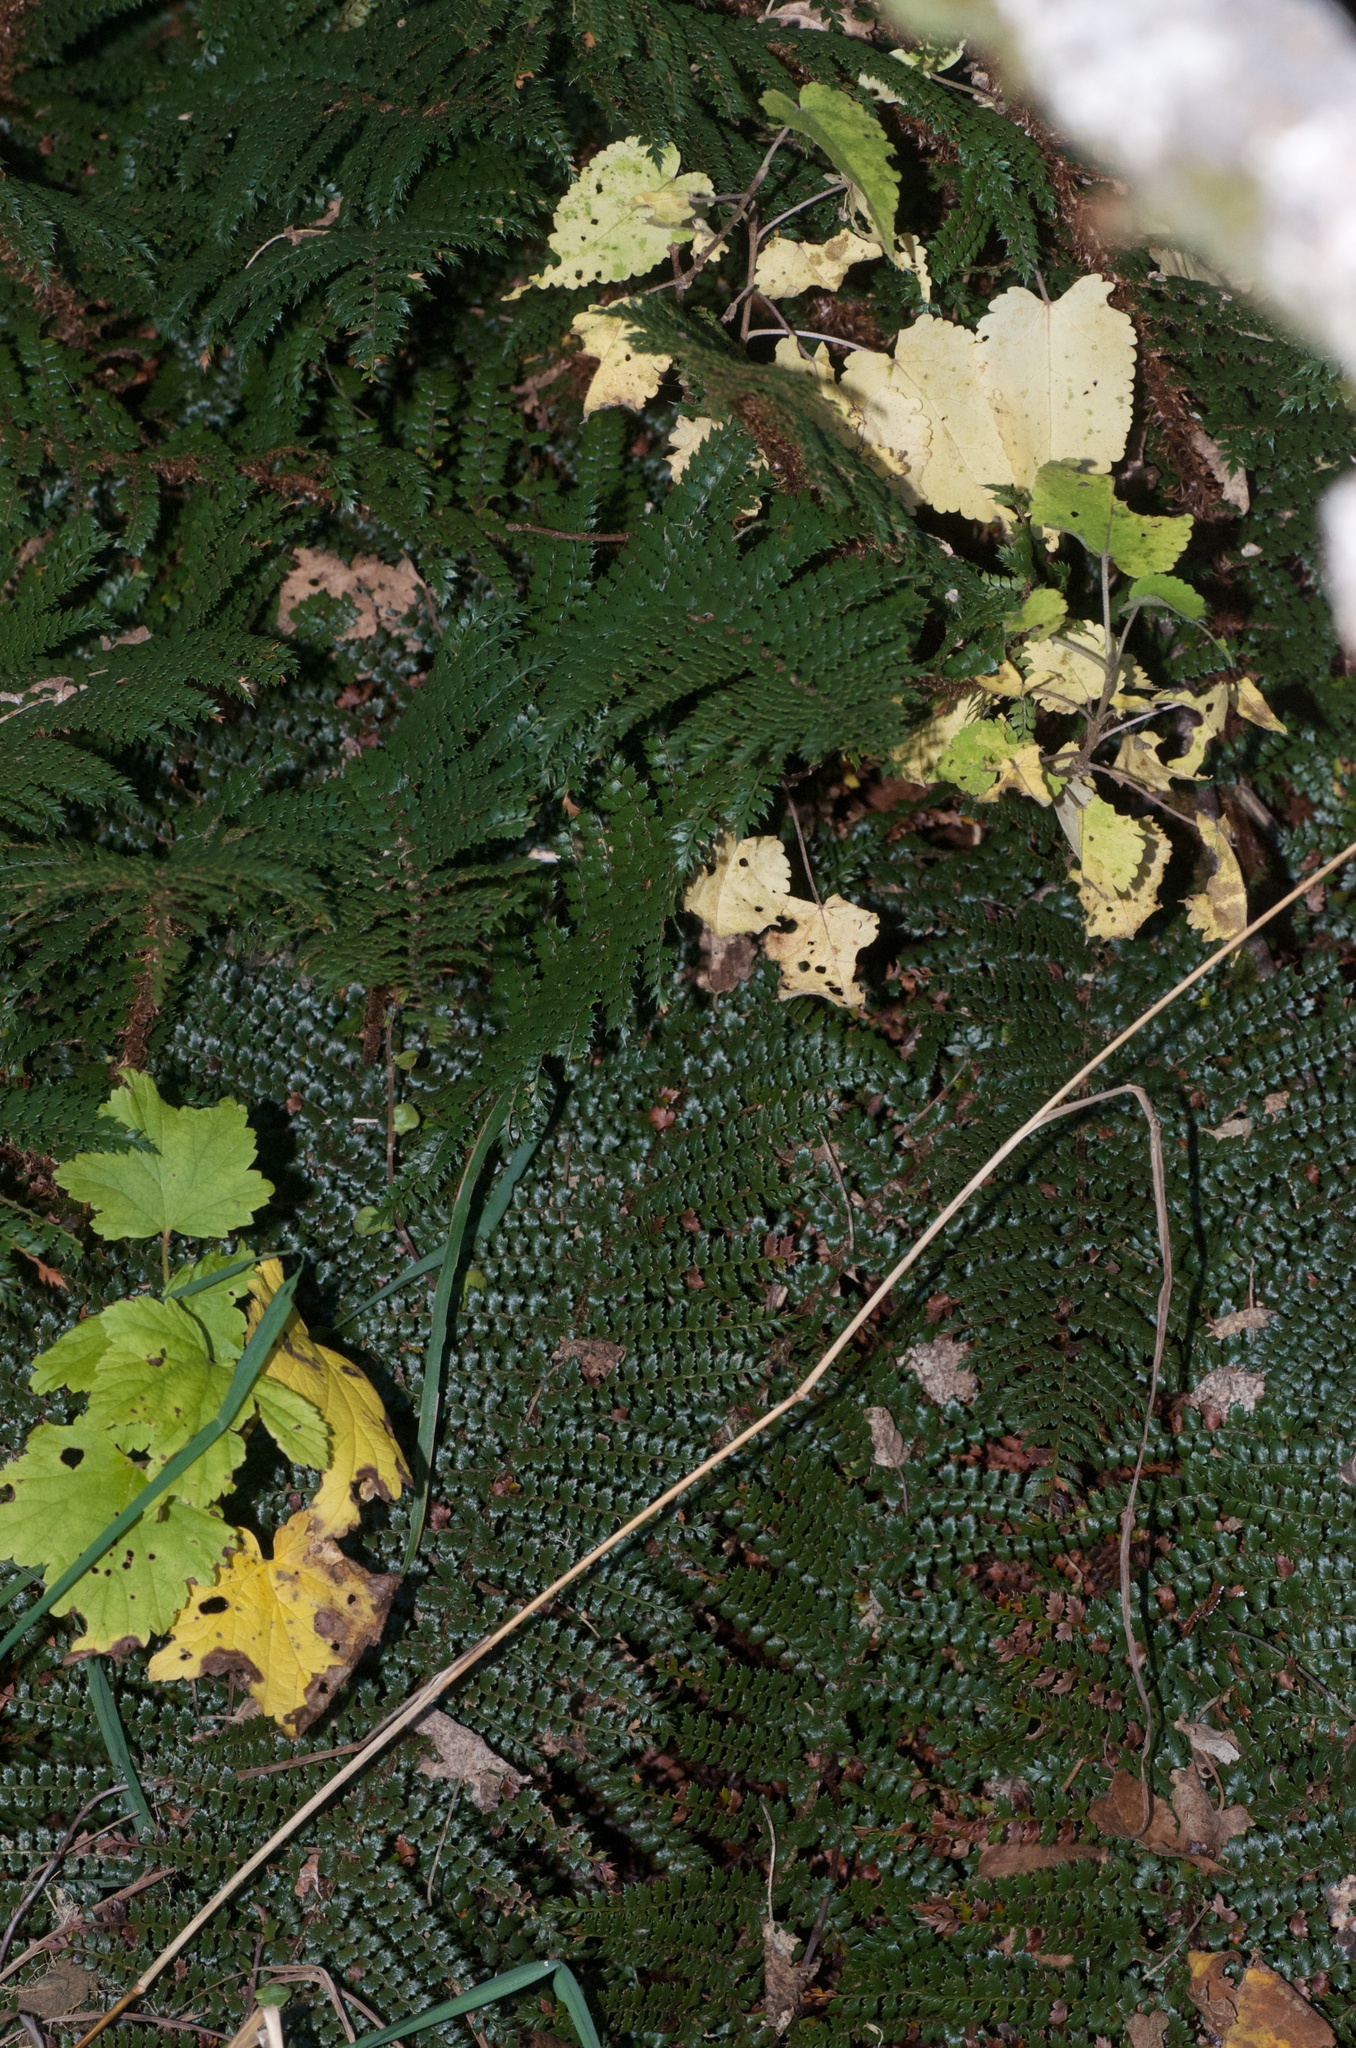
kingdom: Plantae
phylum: Tracheophyta
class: Magnoliopsida
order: Saxifragales
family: Grossulariaceae
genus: Ribes
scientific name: Ribes rubrum
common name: Red currant
